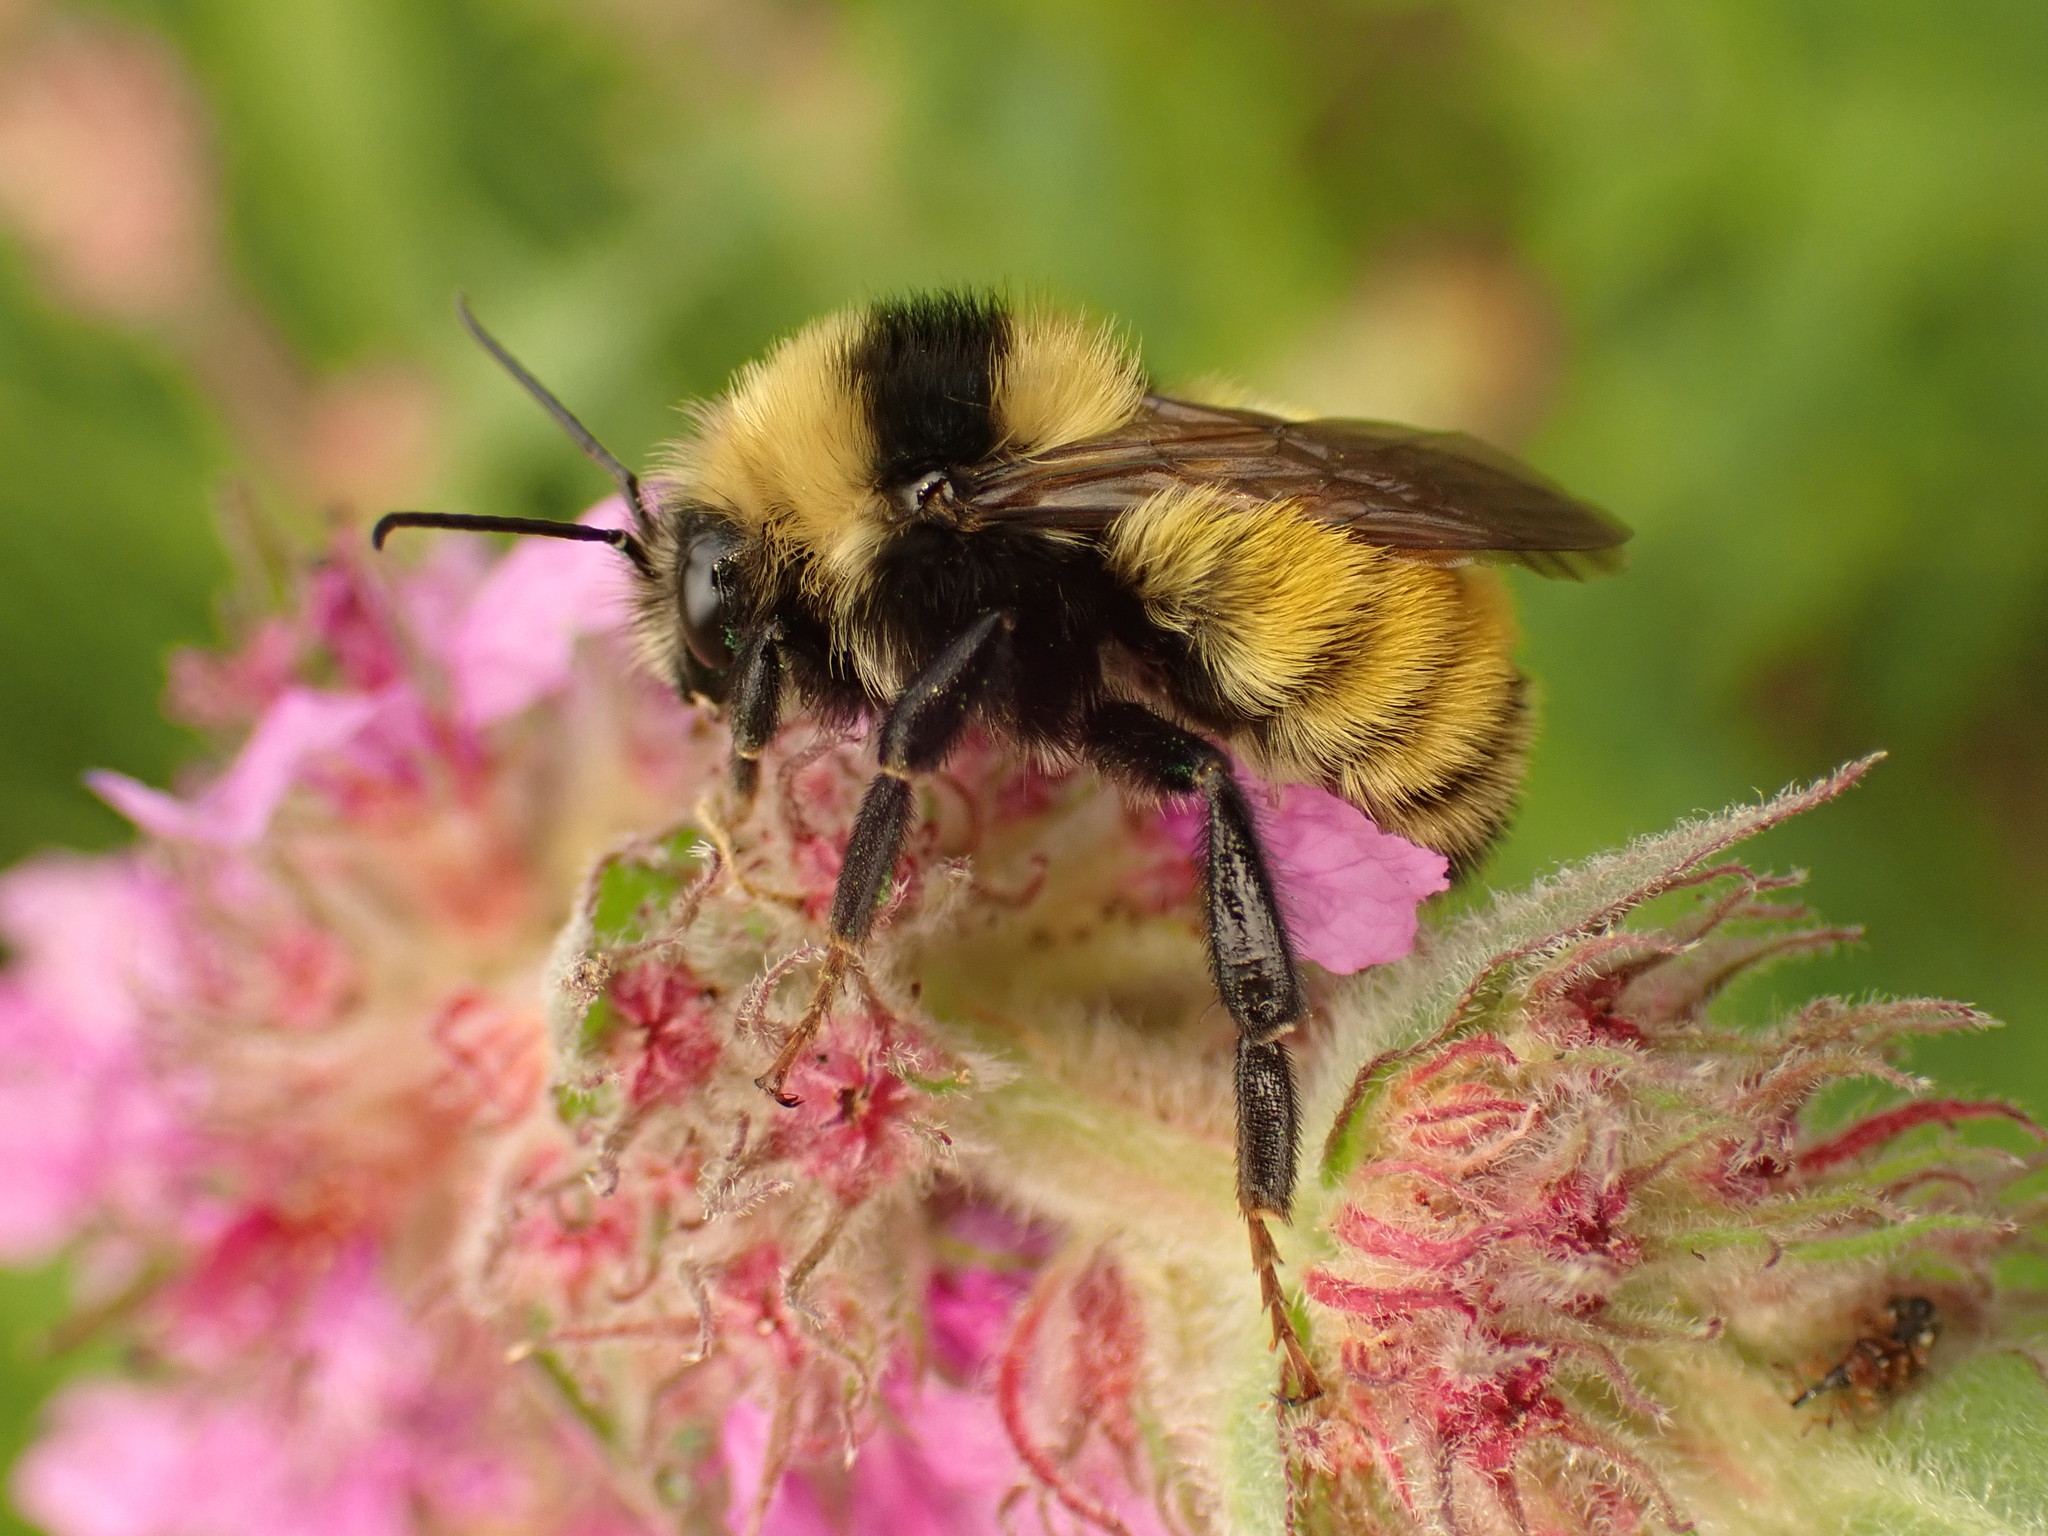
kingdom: Animalia
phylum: Arthropoda
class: Insecta
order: Hymenoptera
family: Apidae
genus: Bombus
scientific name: Bombus borealis
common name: Northern amber bumble bee
